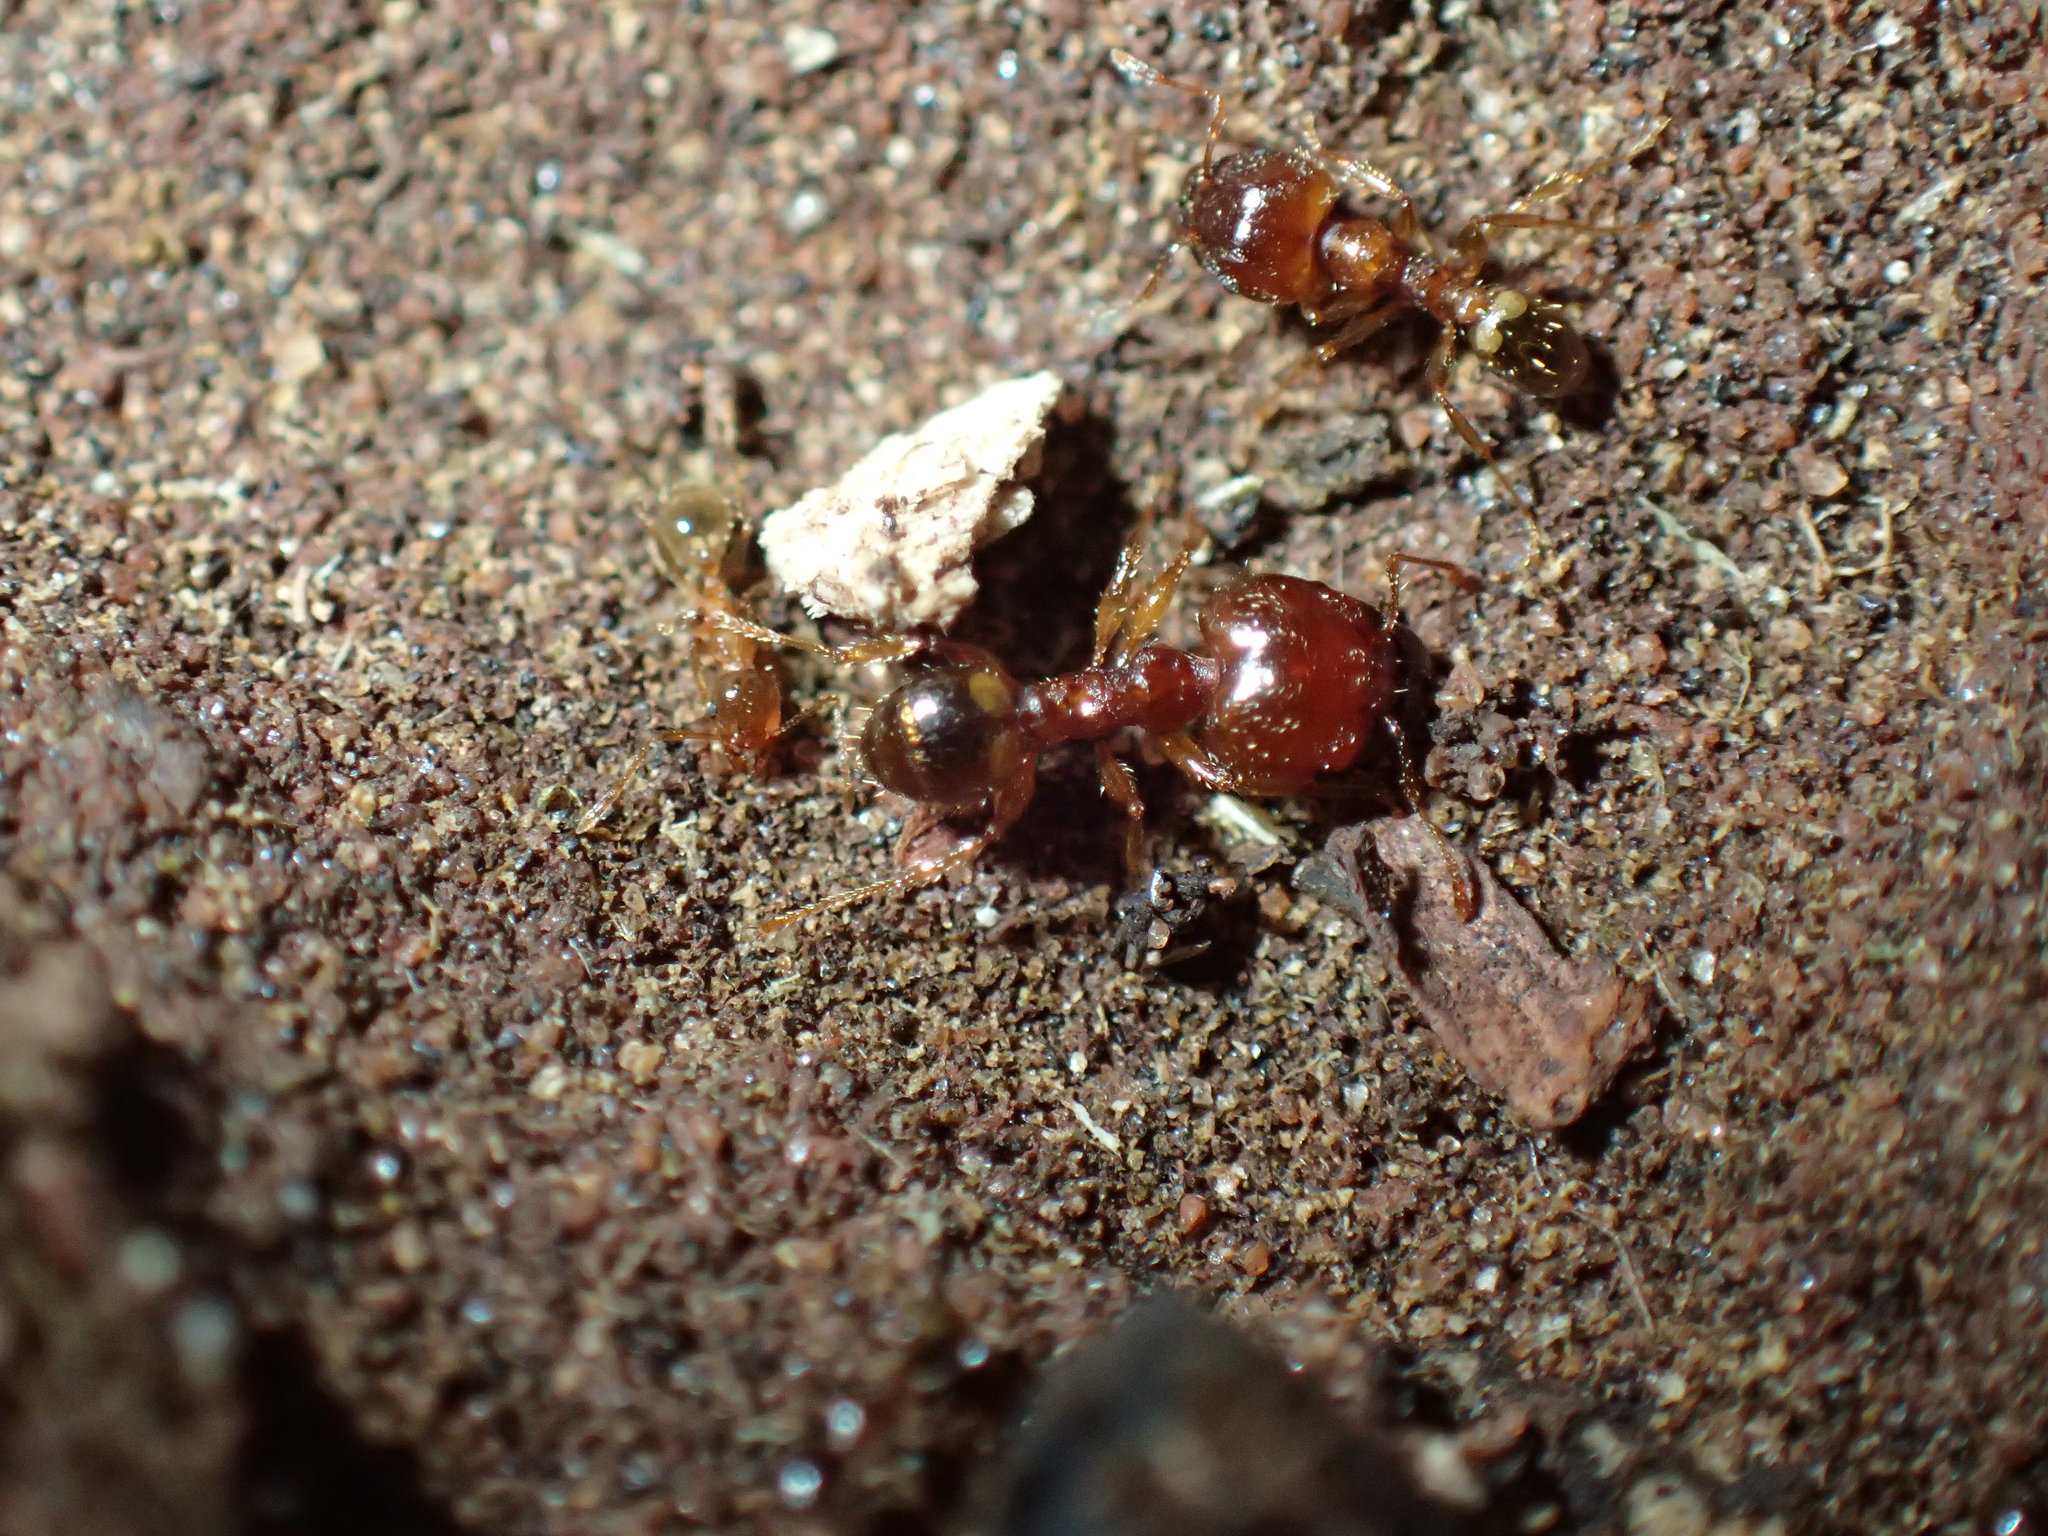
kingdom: Animalia
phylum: Arthropoda
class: Insecta
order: Hymenoptera
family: Formicidae
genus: Pheidole
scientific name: Pheidole megacephala
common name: Bigheaded ant
